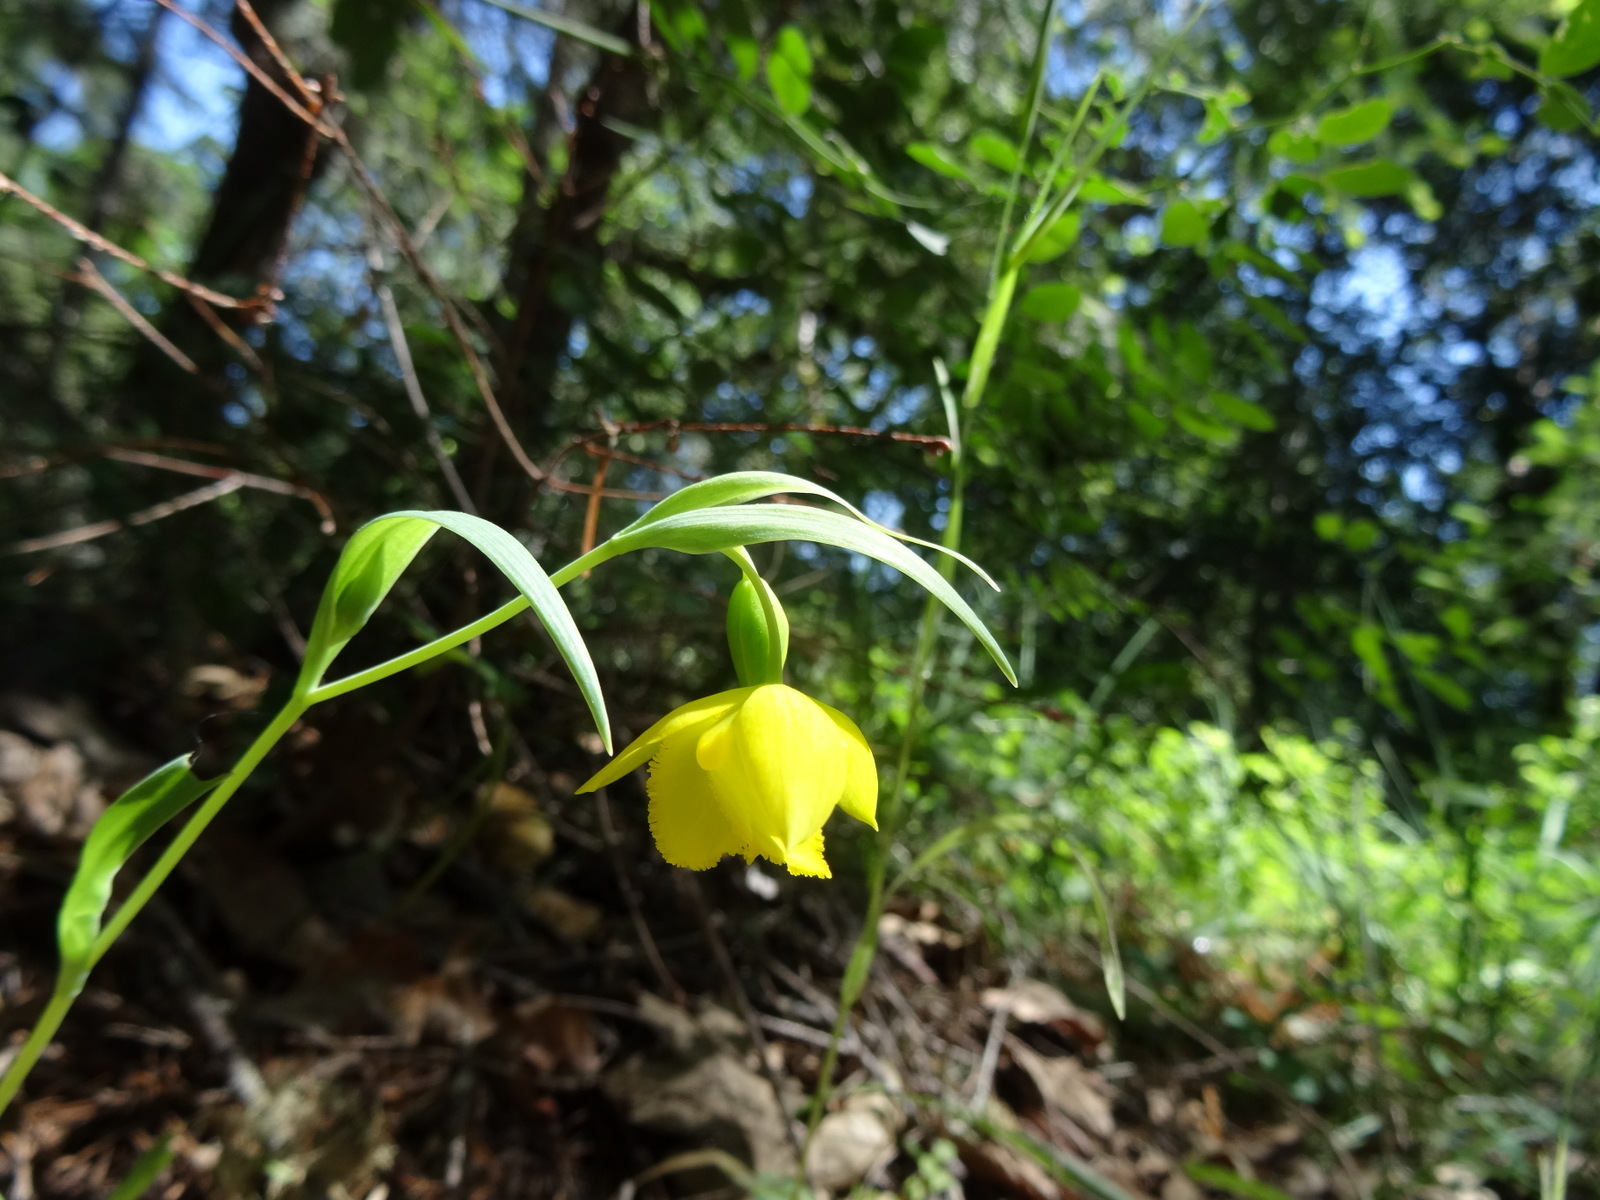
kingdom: Plantae
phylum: Tracheophyta
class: Liliopsida
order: Liliales
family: Liliaceae
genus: Calochortus
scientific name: Calochortus amabilis
